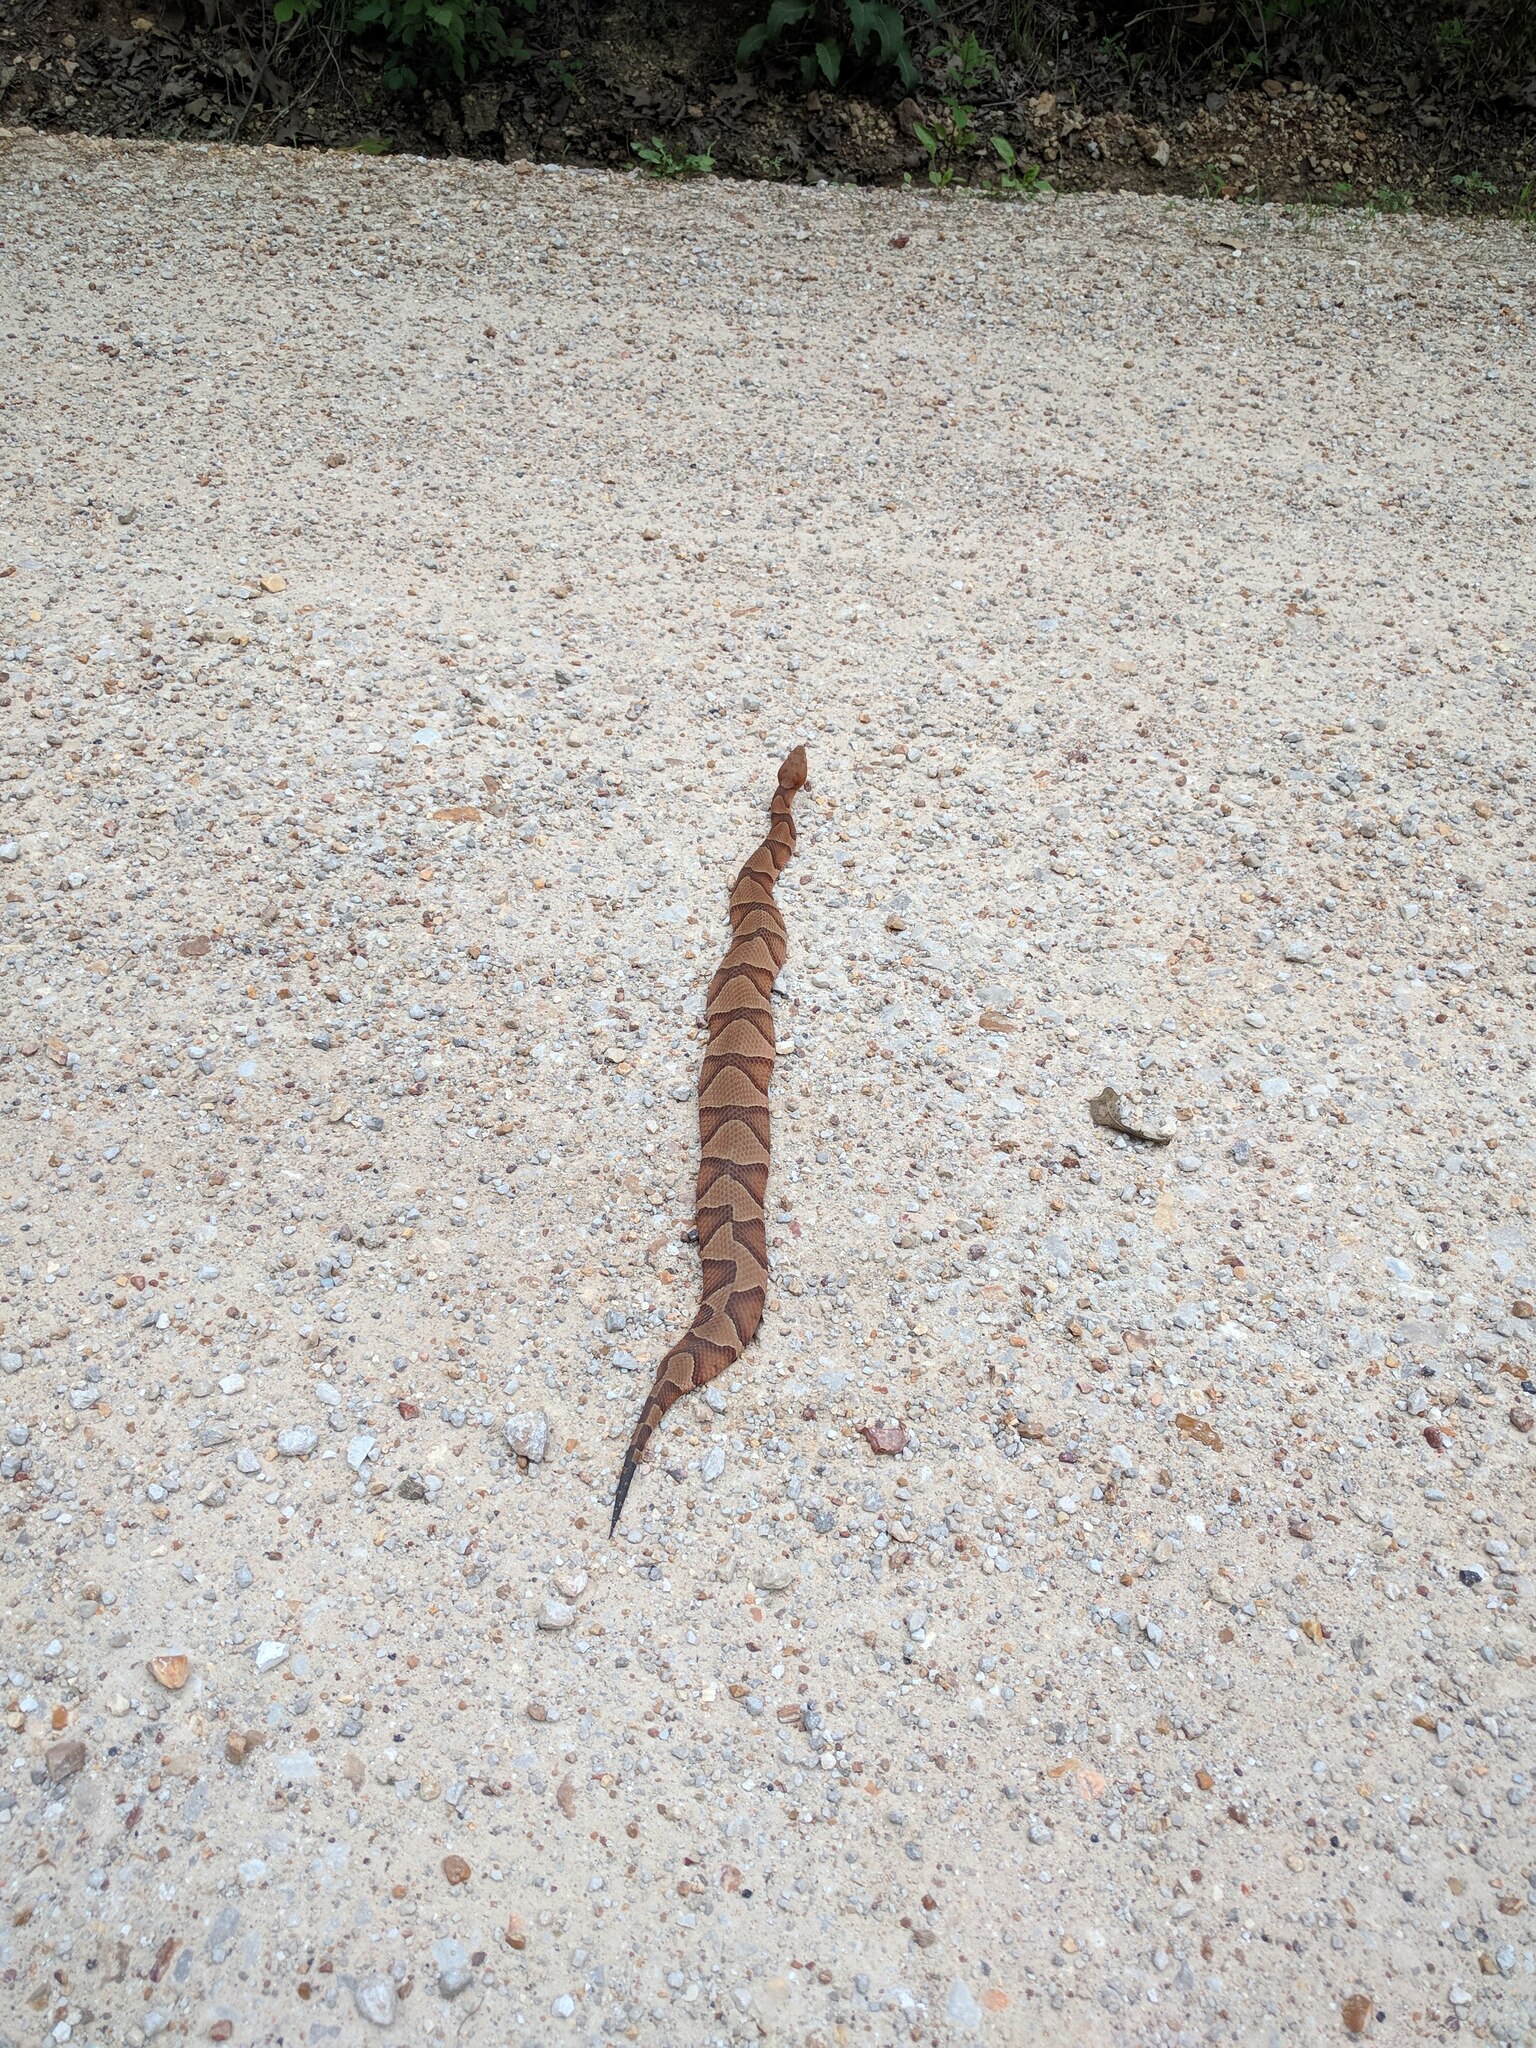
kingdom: Animalia
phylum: Chordata
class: Squamata
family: Viperidae
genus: Agkistrodon
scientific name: Agkistrodon contortrix
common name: Northern copperhead
